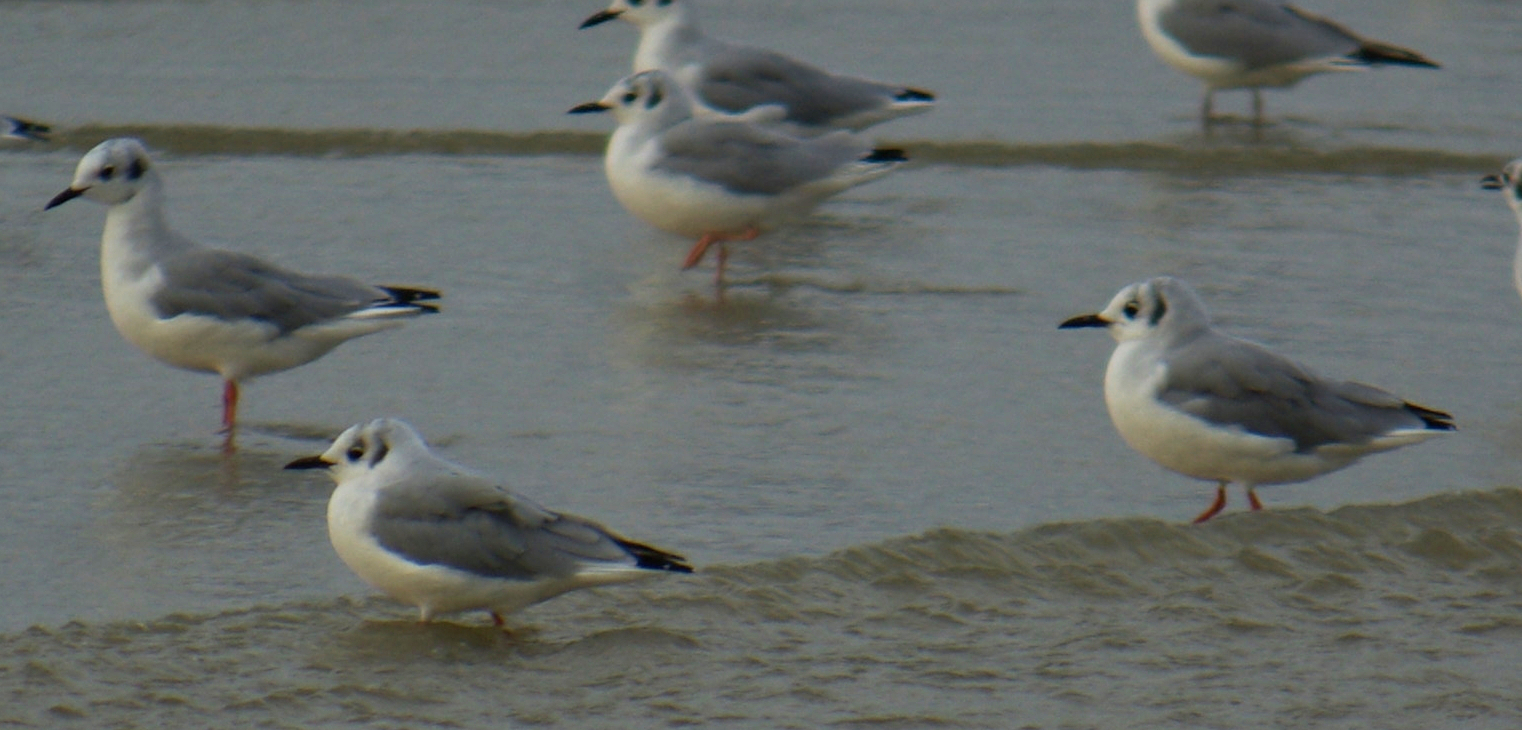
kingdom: Animalia
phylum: Chordata
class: Aves
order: Charadriiformes
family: Laridae
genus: Chroicocephalus
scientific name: Chroicocephalus philadelphia
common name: Bonaparte's gull
